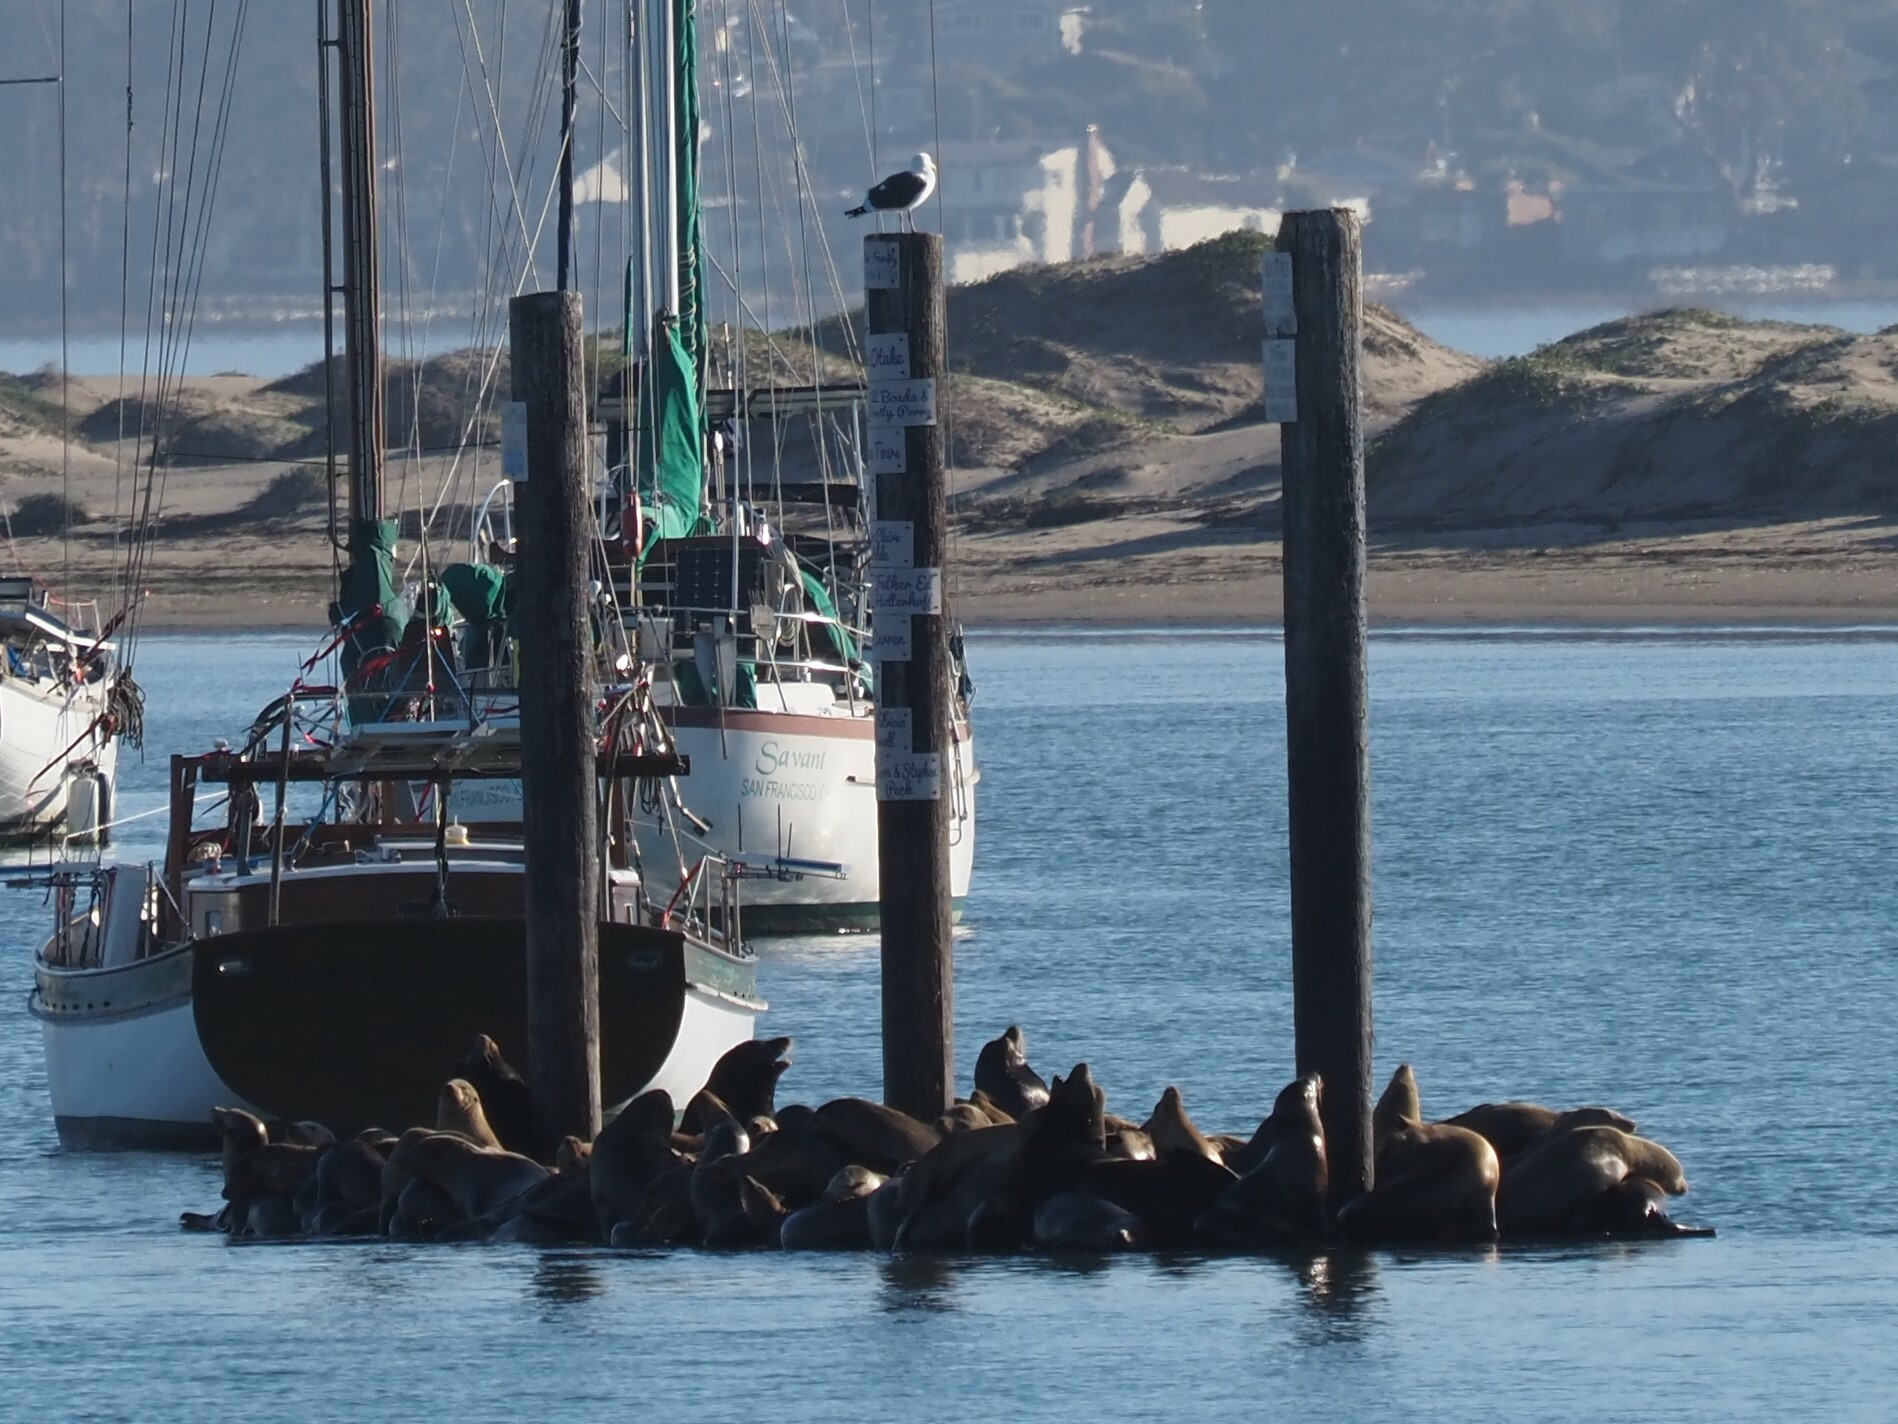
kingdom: Animalia
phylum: Chordata
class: Mammalia
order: Carnivora
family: Otariidae
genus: Zalophus
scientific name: Zalophus californianus
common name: California sea lion
